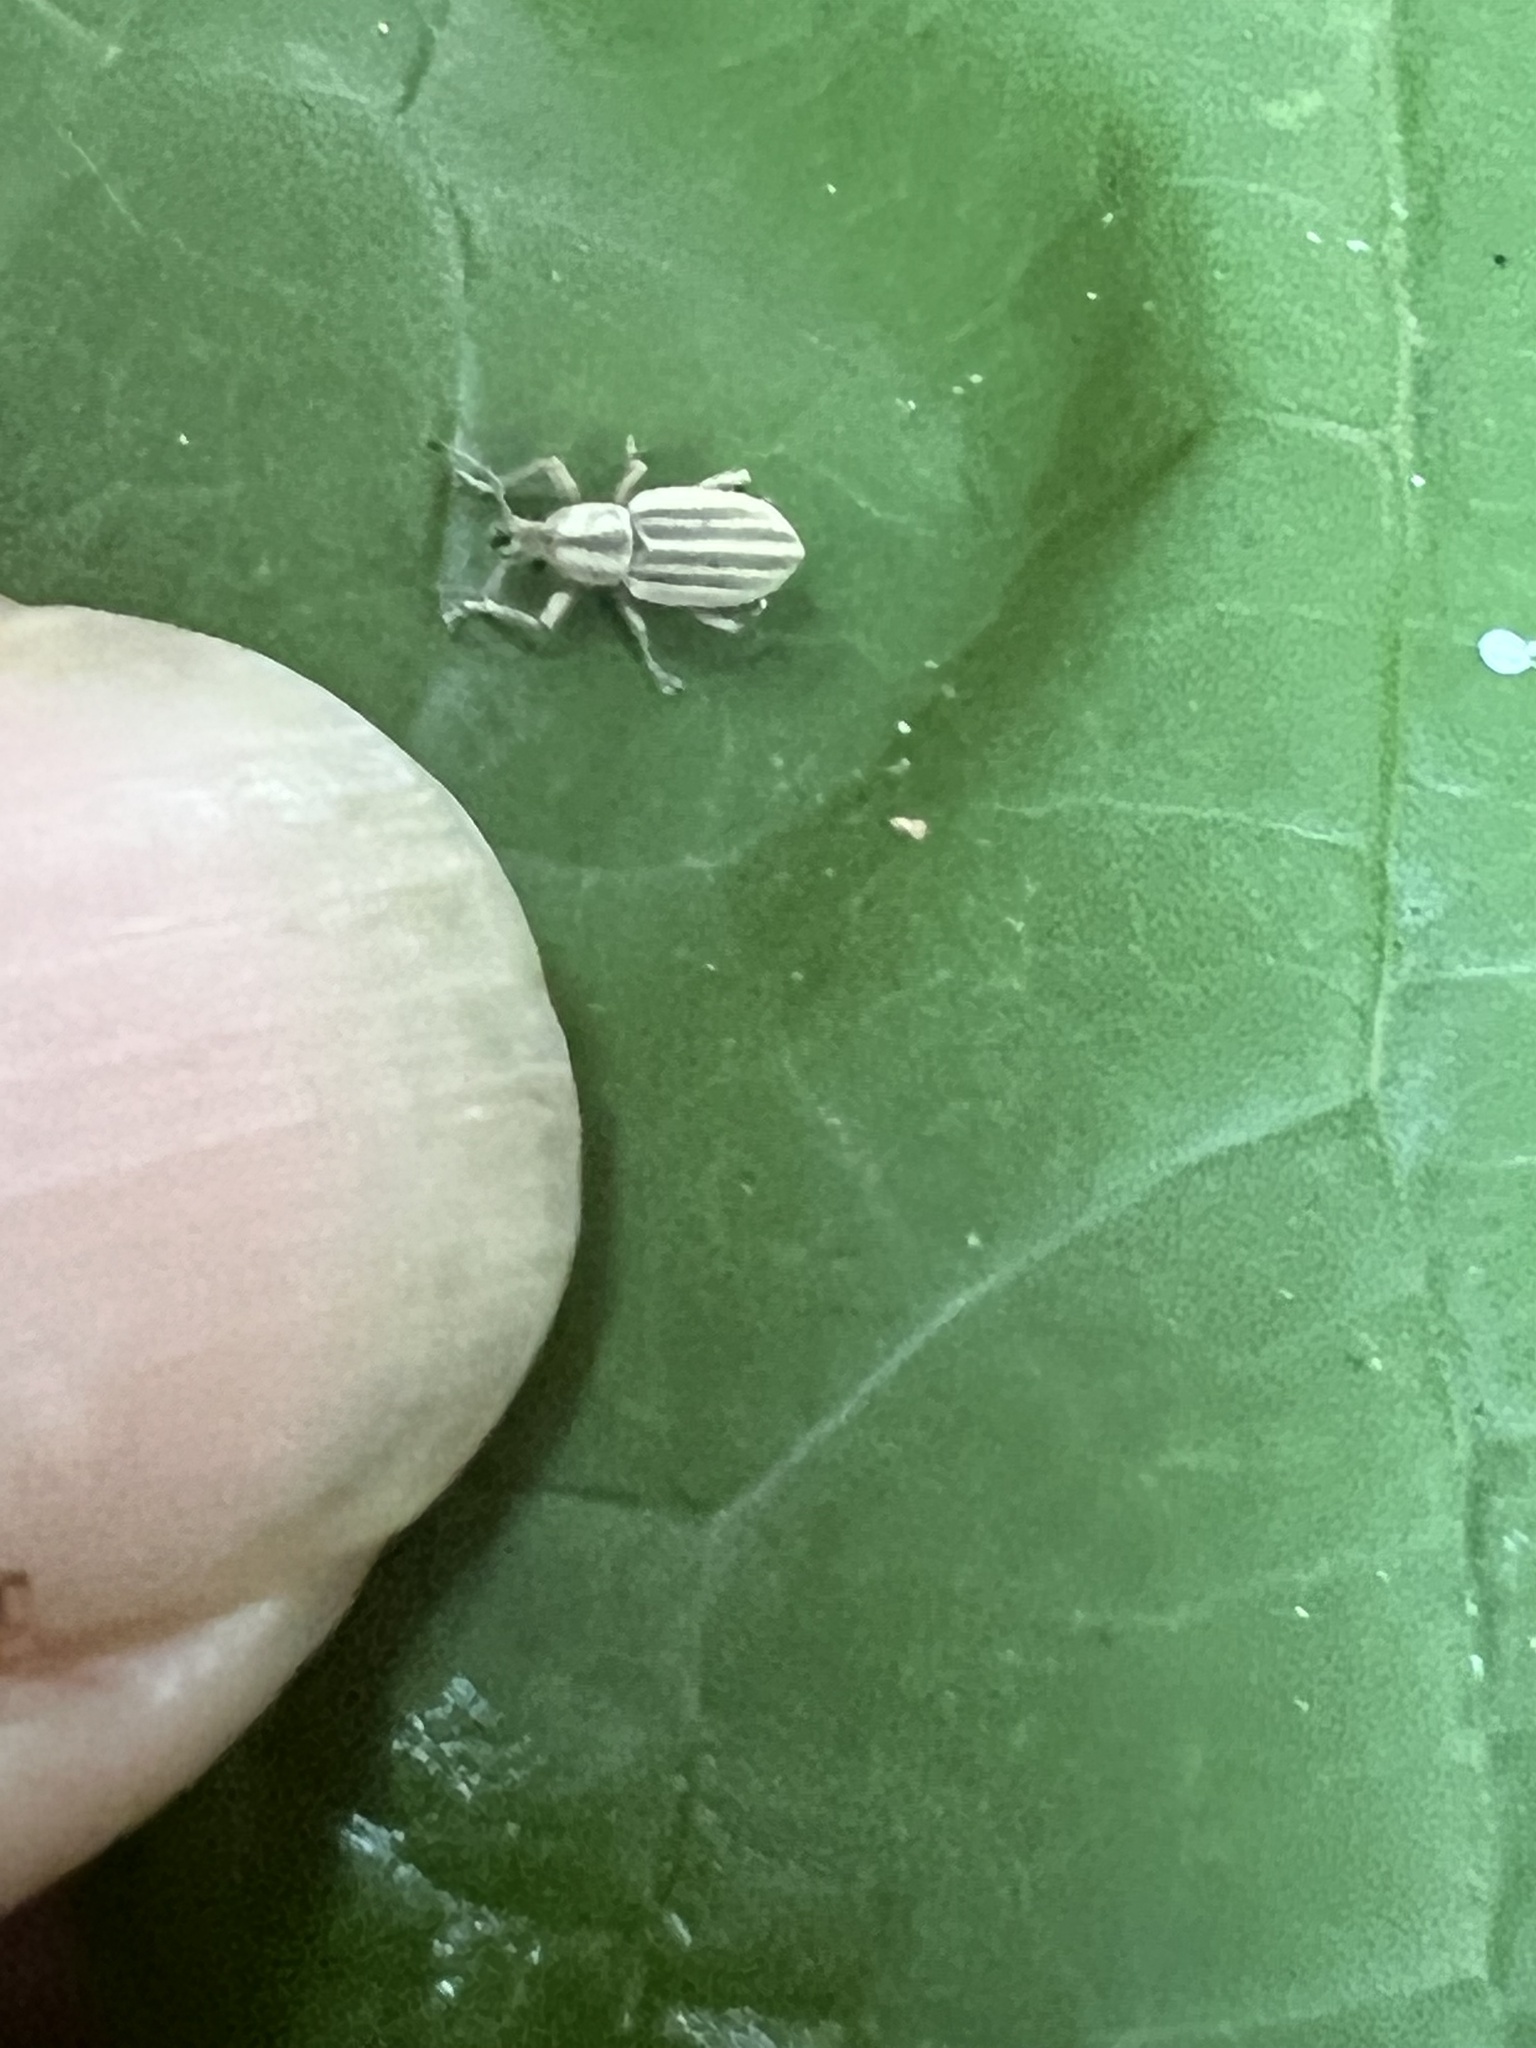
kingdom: Animalia
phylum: Arthropoda
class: Insecta
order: Coleoptera
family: Curculionidae
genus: Aphrastus
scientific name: Aphrastus taeniatus
